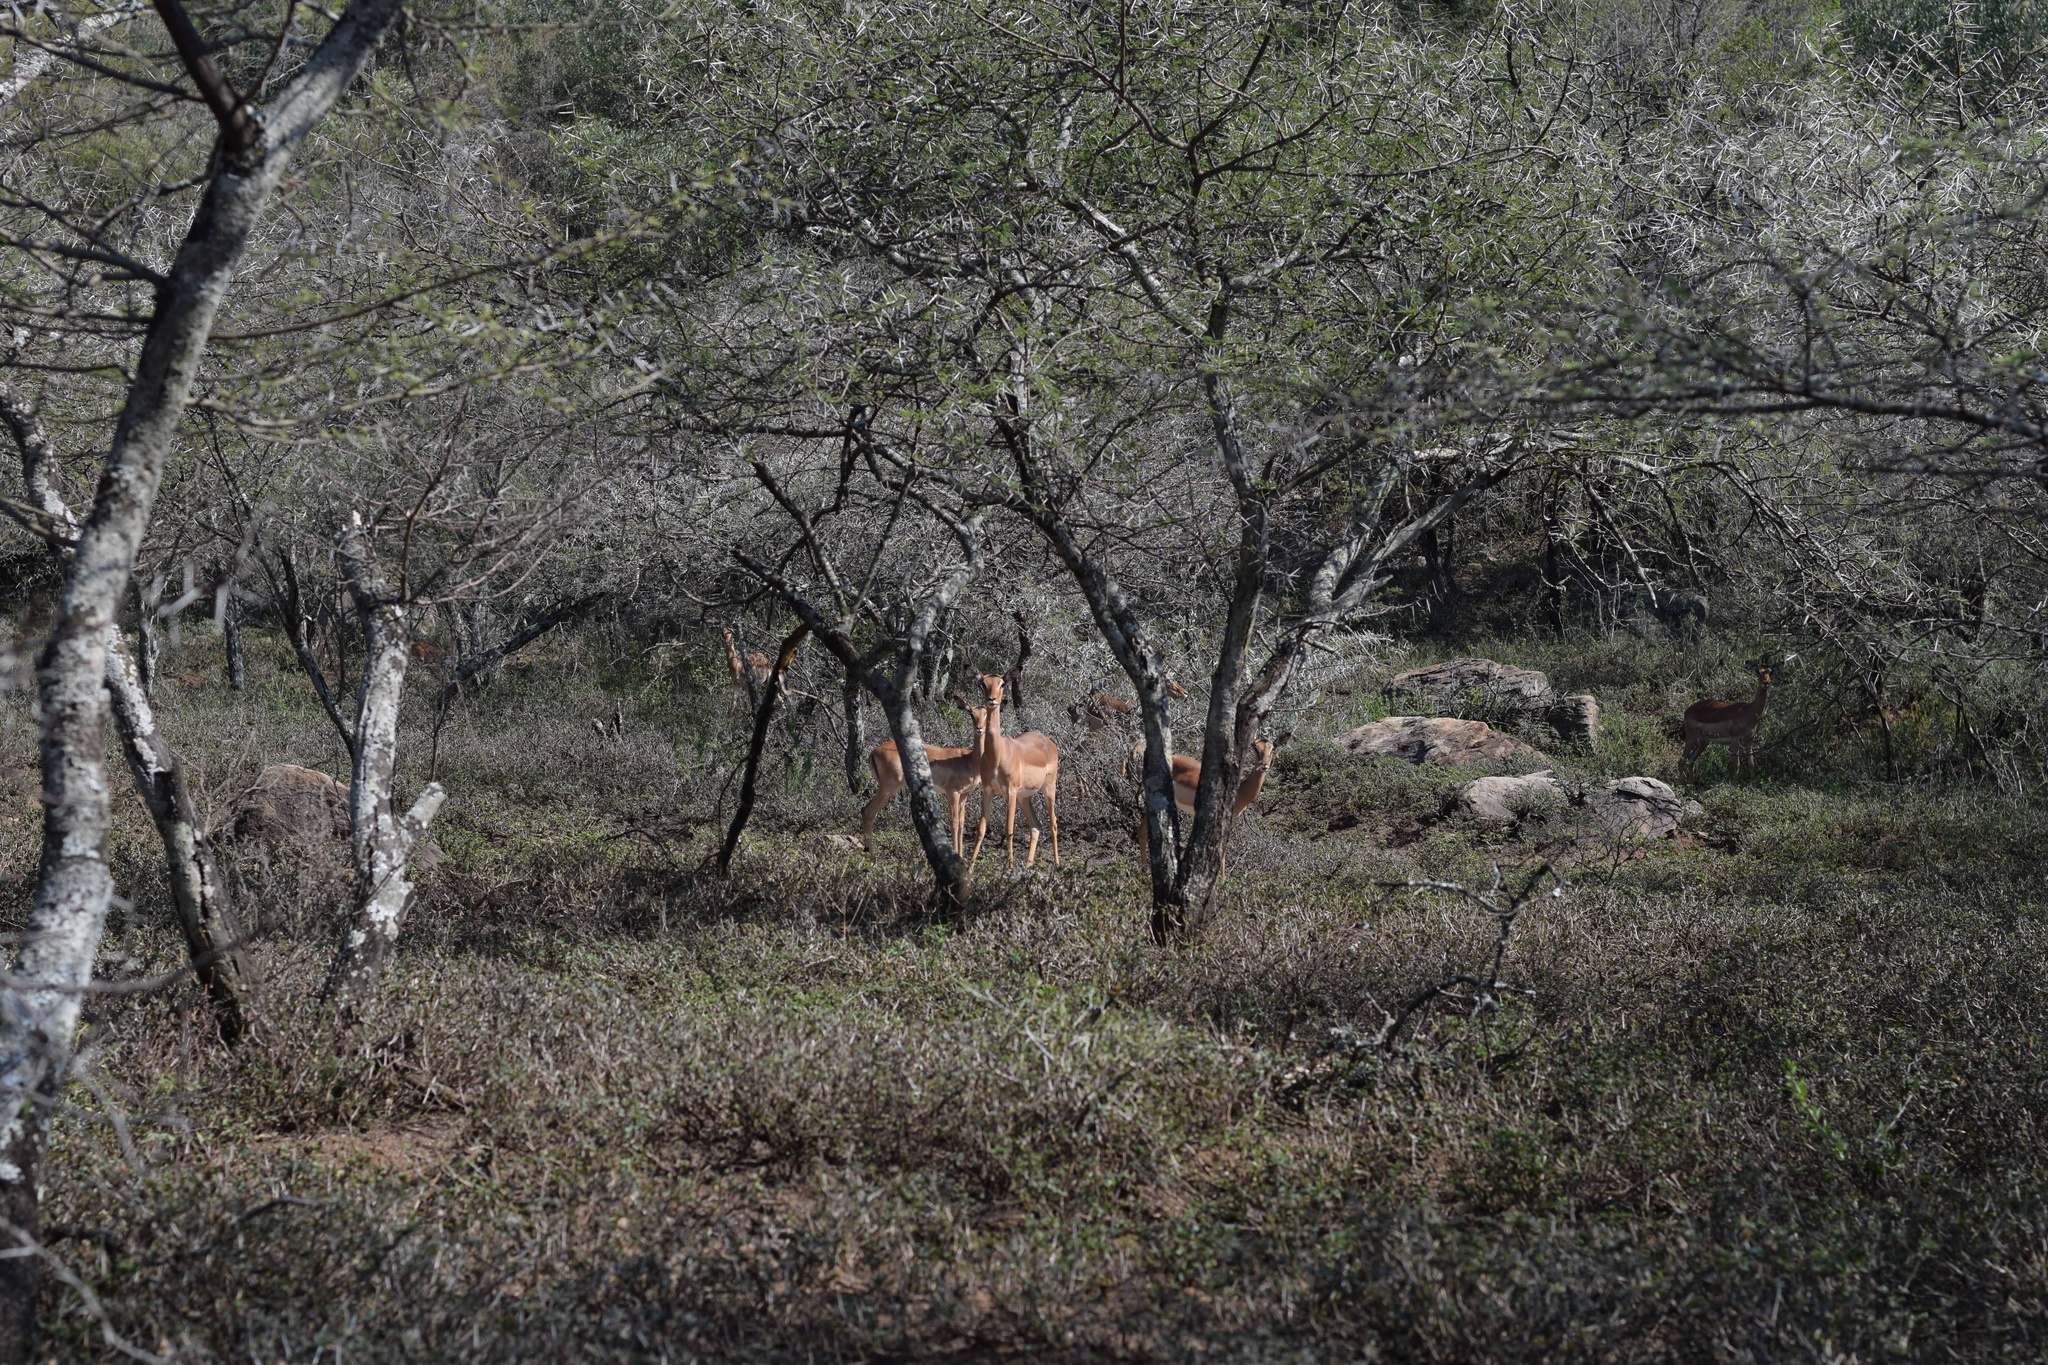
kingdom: Animalia
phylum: Chordata
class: Mammalia
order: Artiodactyla
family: Bovidae
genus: Aepyceros
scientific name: Aepyceros melampus
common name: Impala
